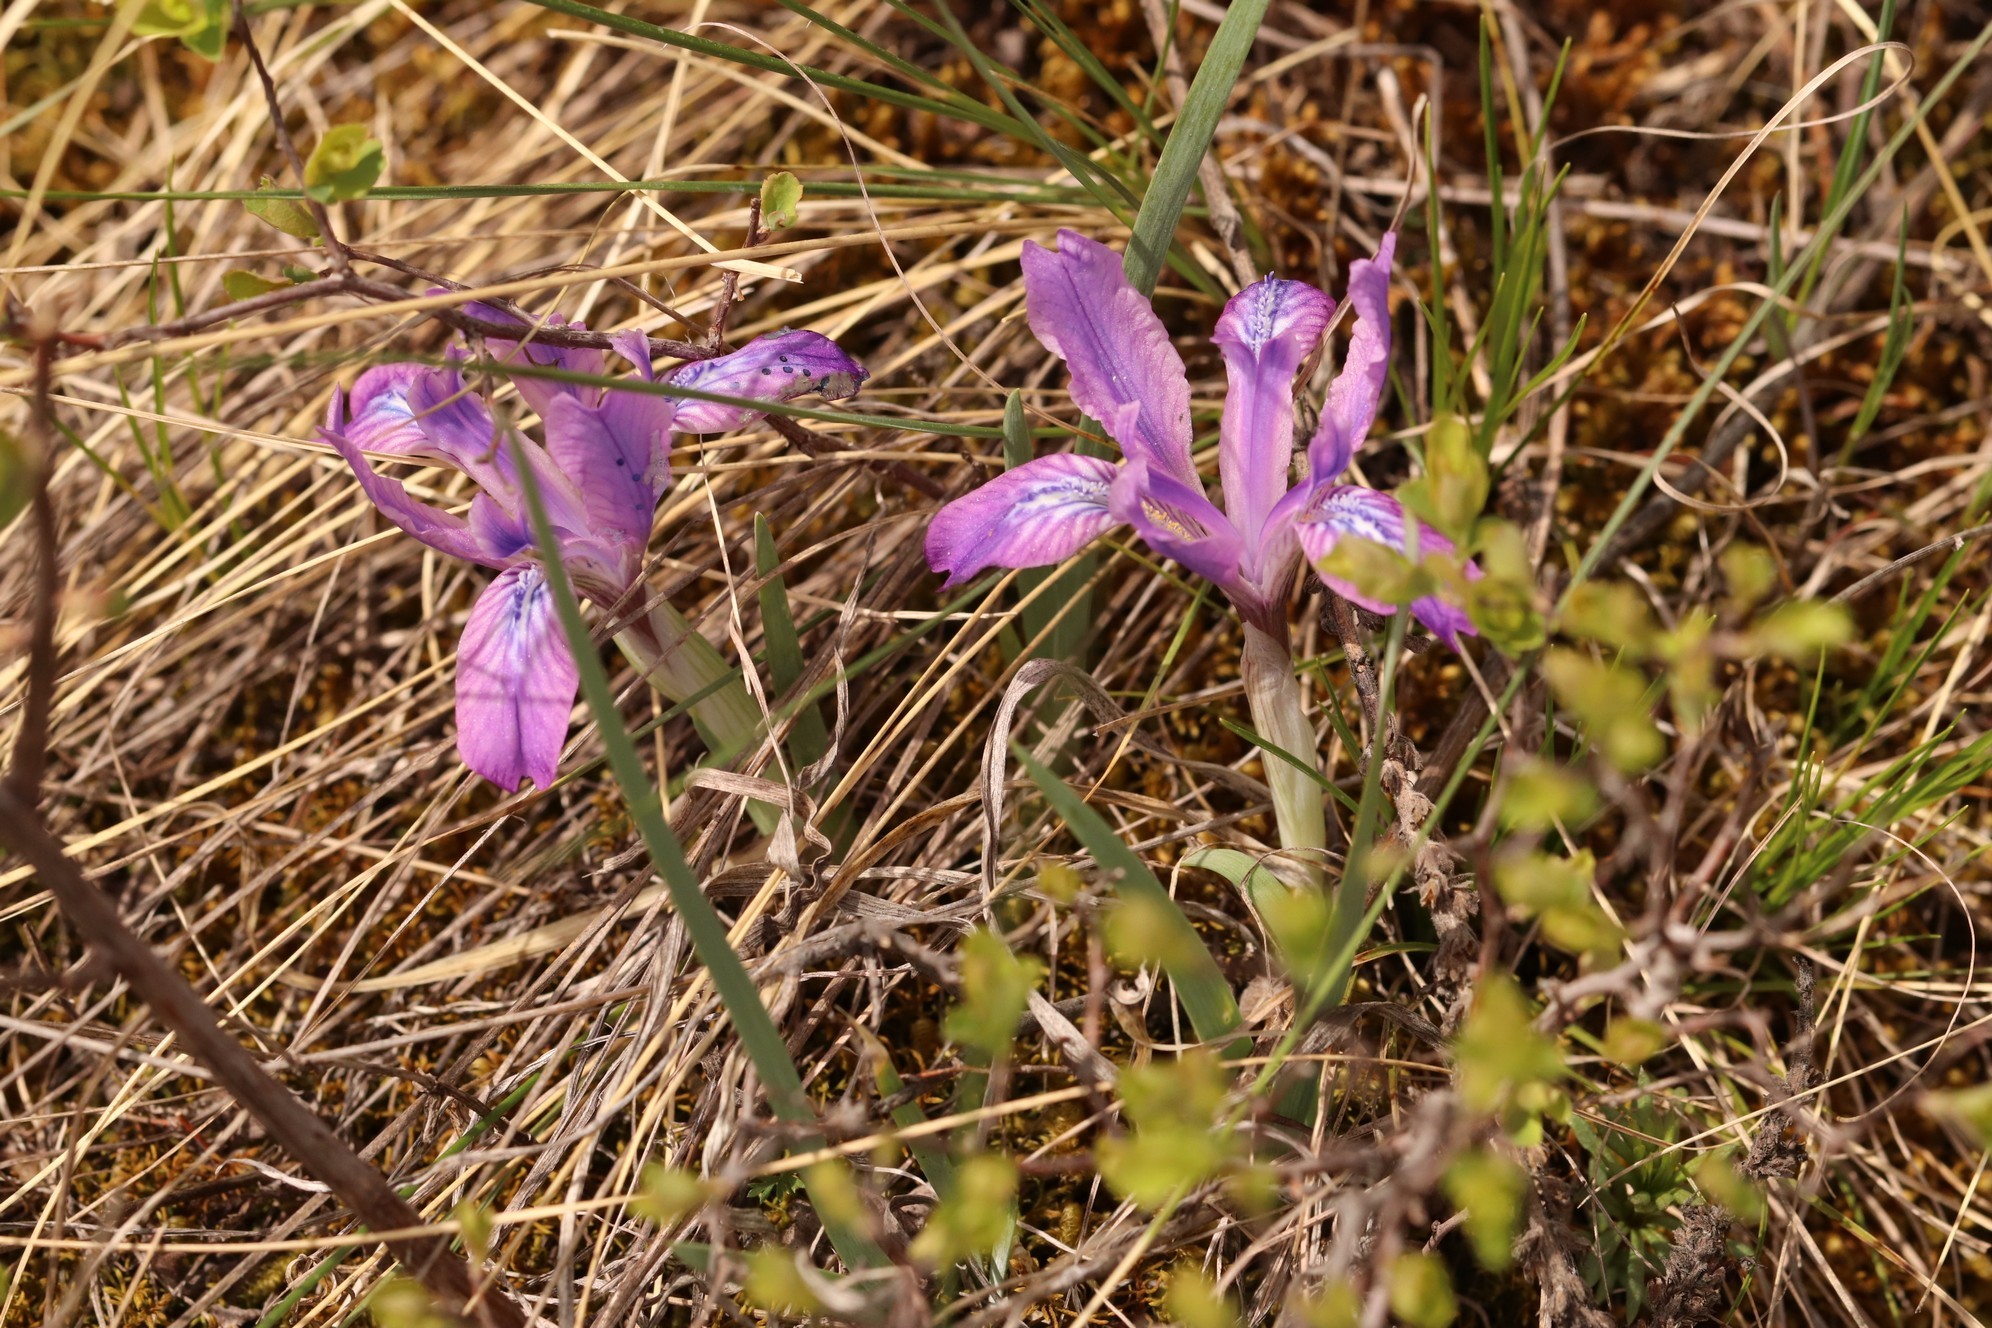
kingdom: Plantae
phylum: Tracheophyta
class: Liliopsida
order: Asparagales
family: Iridaceae
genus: Iris
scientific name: Iris tigridia
